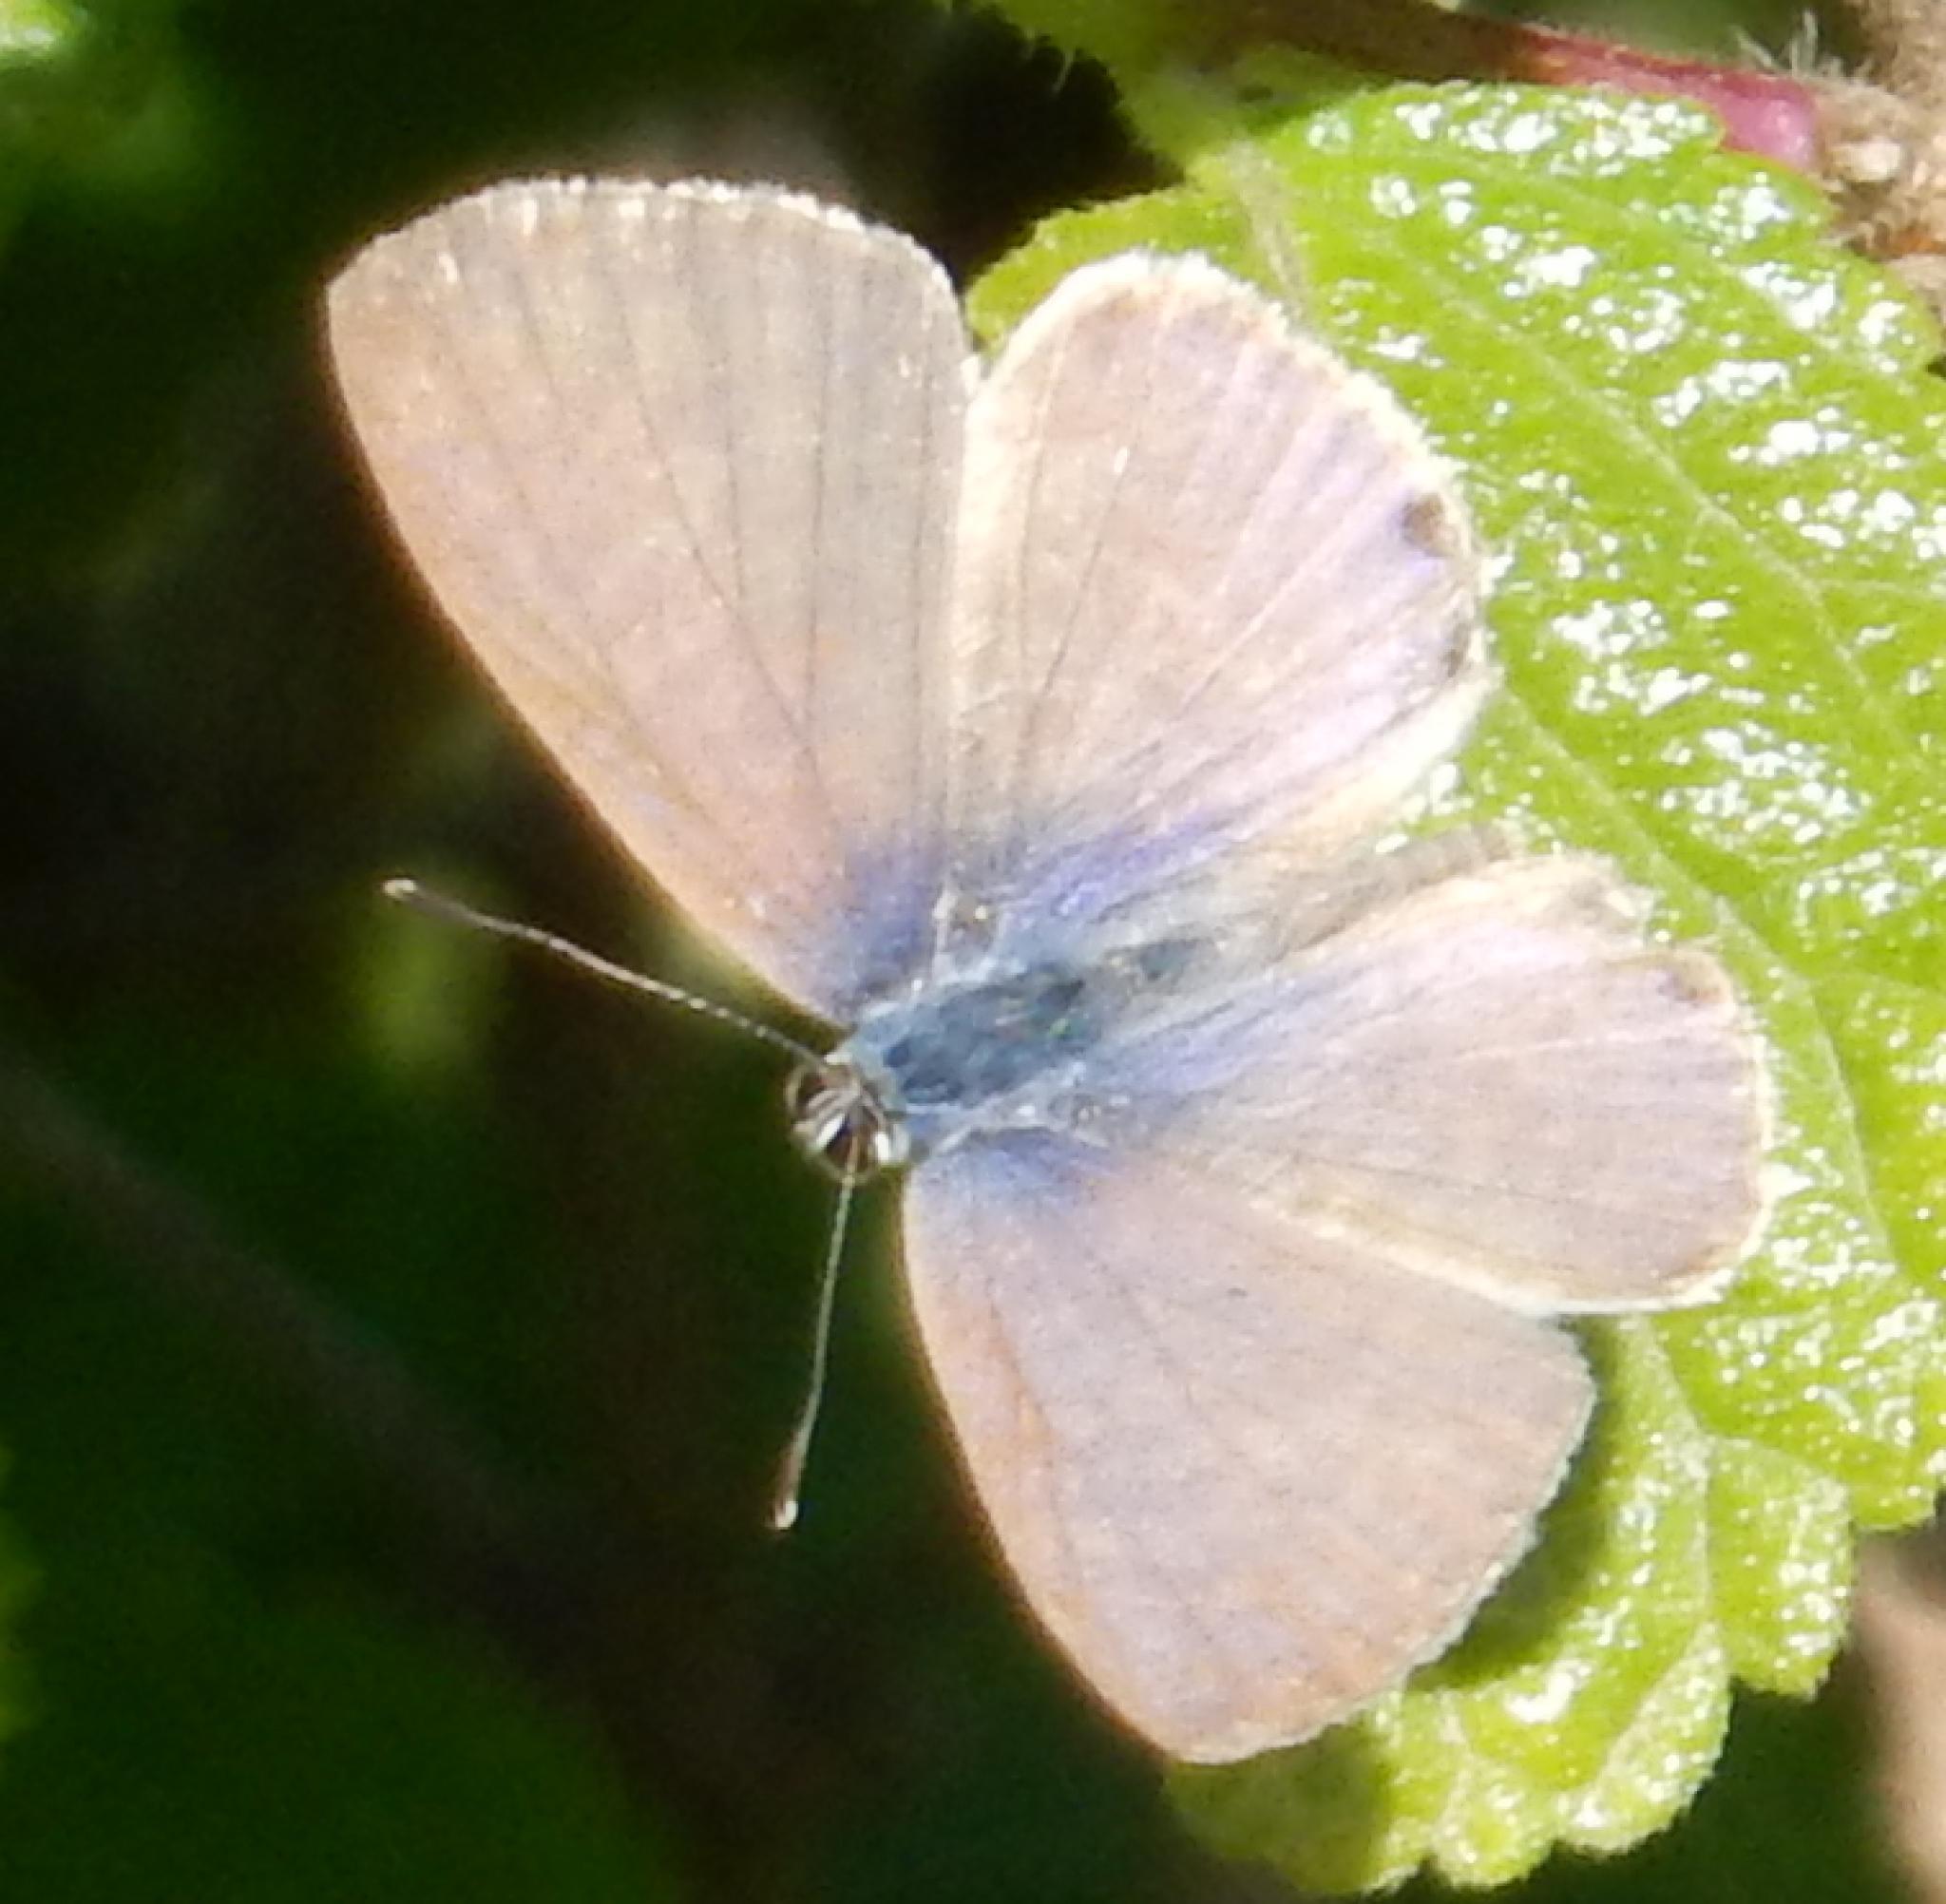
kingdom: Animalia
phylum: Arthropoda
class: Insecta
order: Lepidoptera
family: Lycaenidae
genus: Leptotes
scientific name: Leptotes
